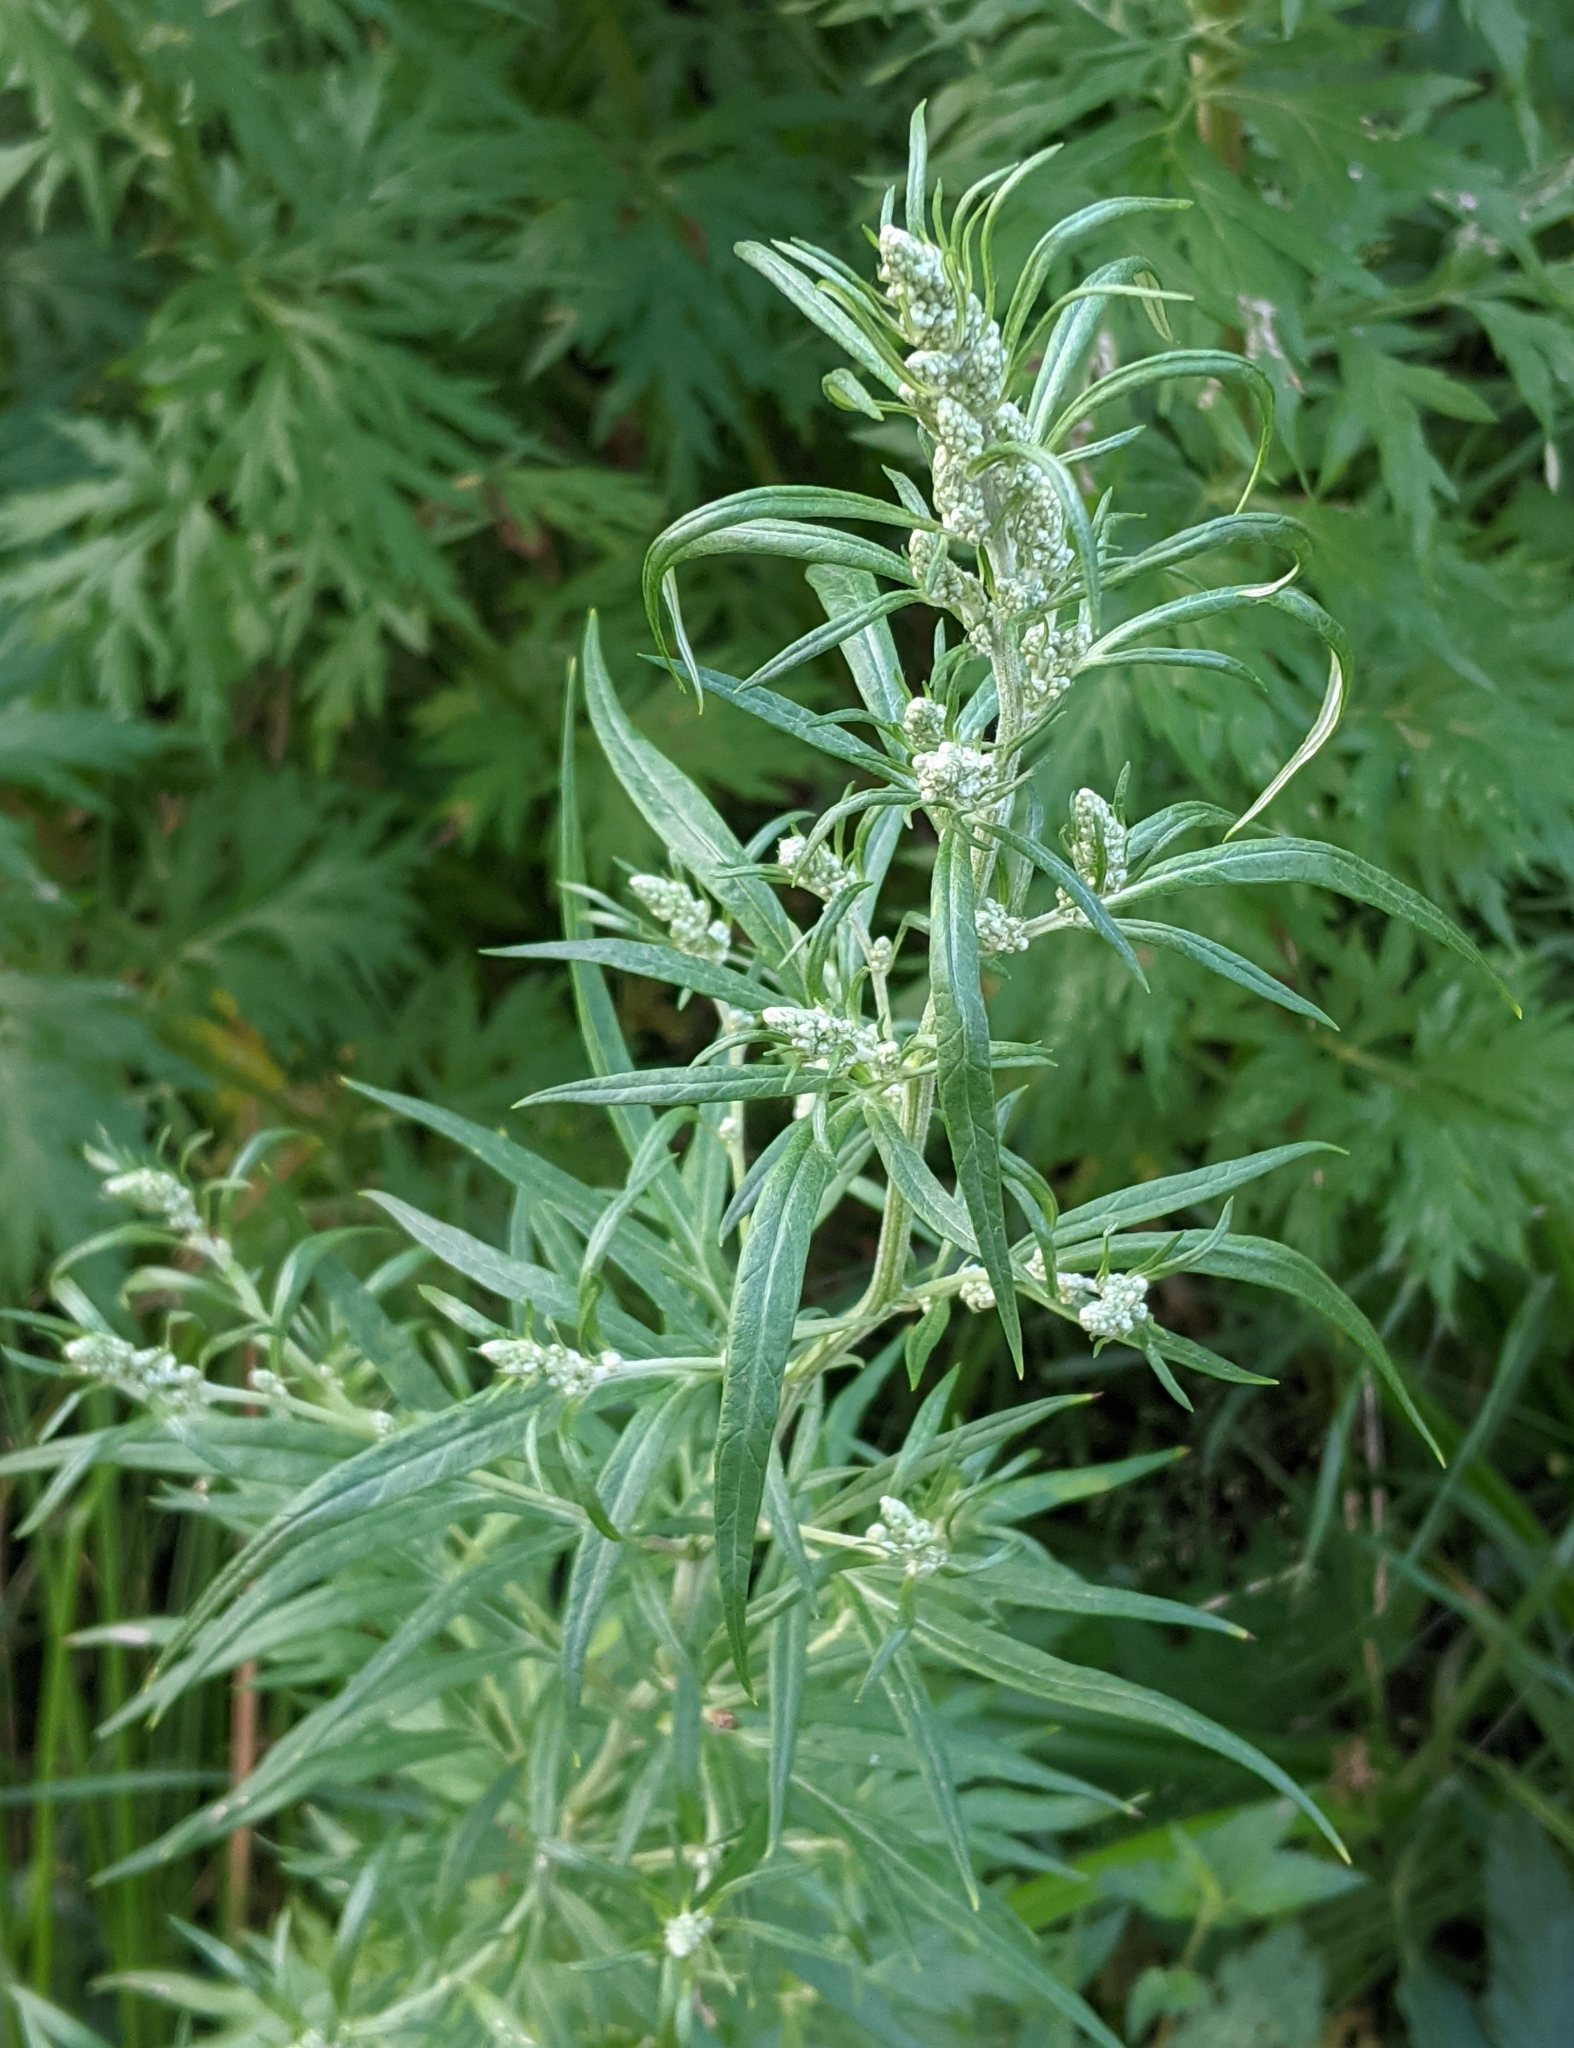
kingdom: Plantae
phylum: Tracheophyta
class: Magnoliopsida
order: Asterales
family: Asteraceae
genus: Artemisia
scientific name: Artemisia vulgaris
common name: Mugwort
